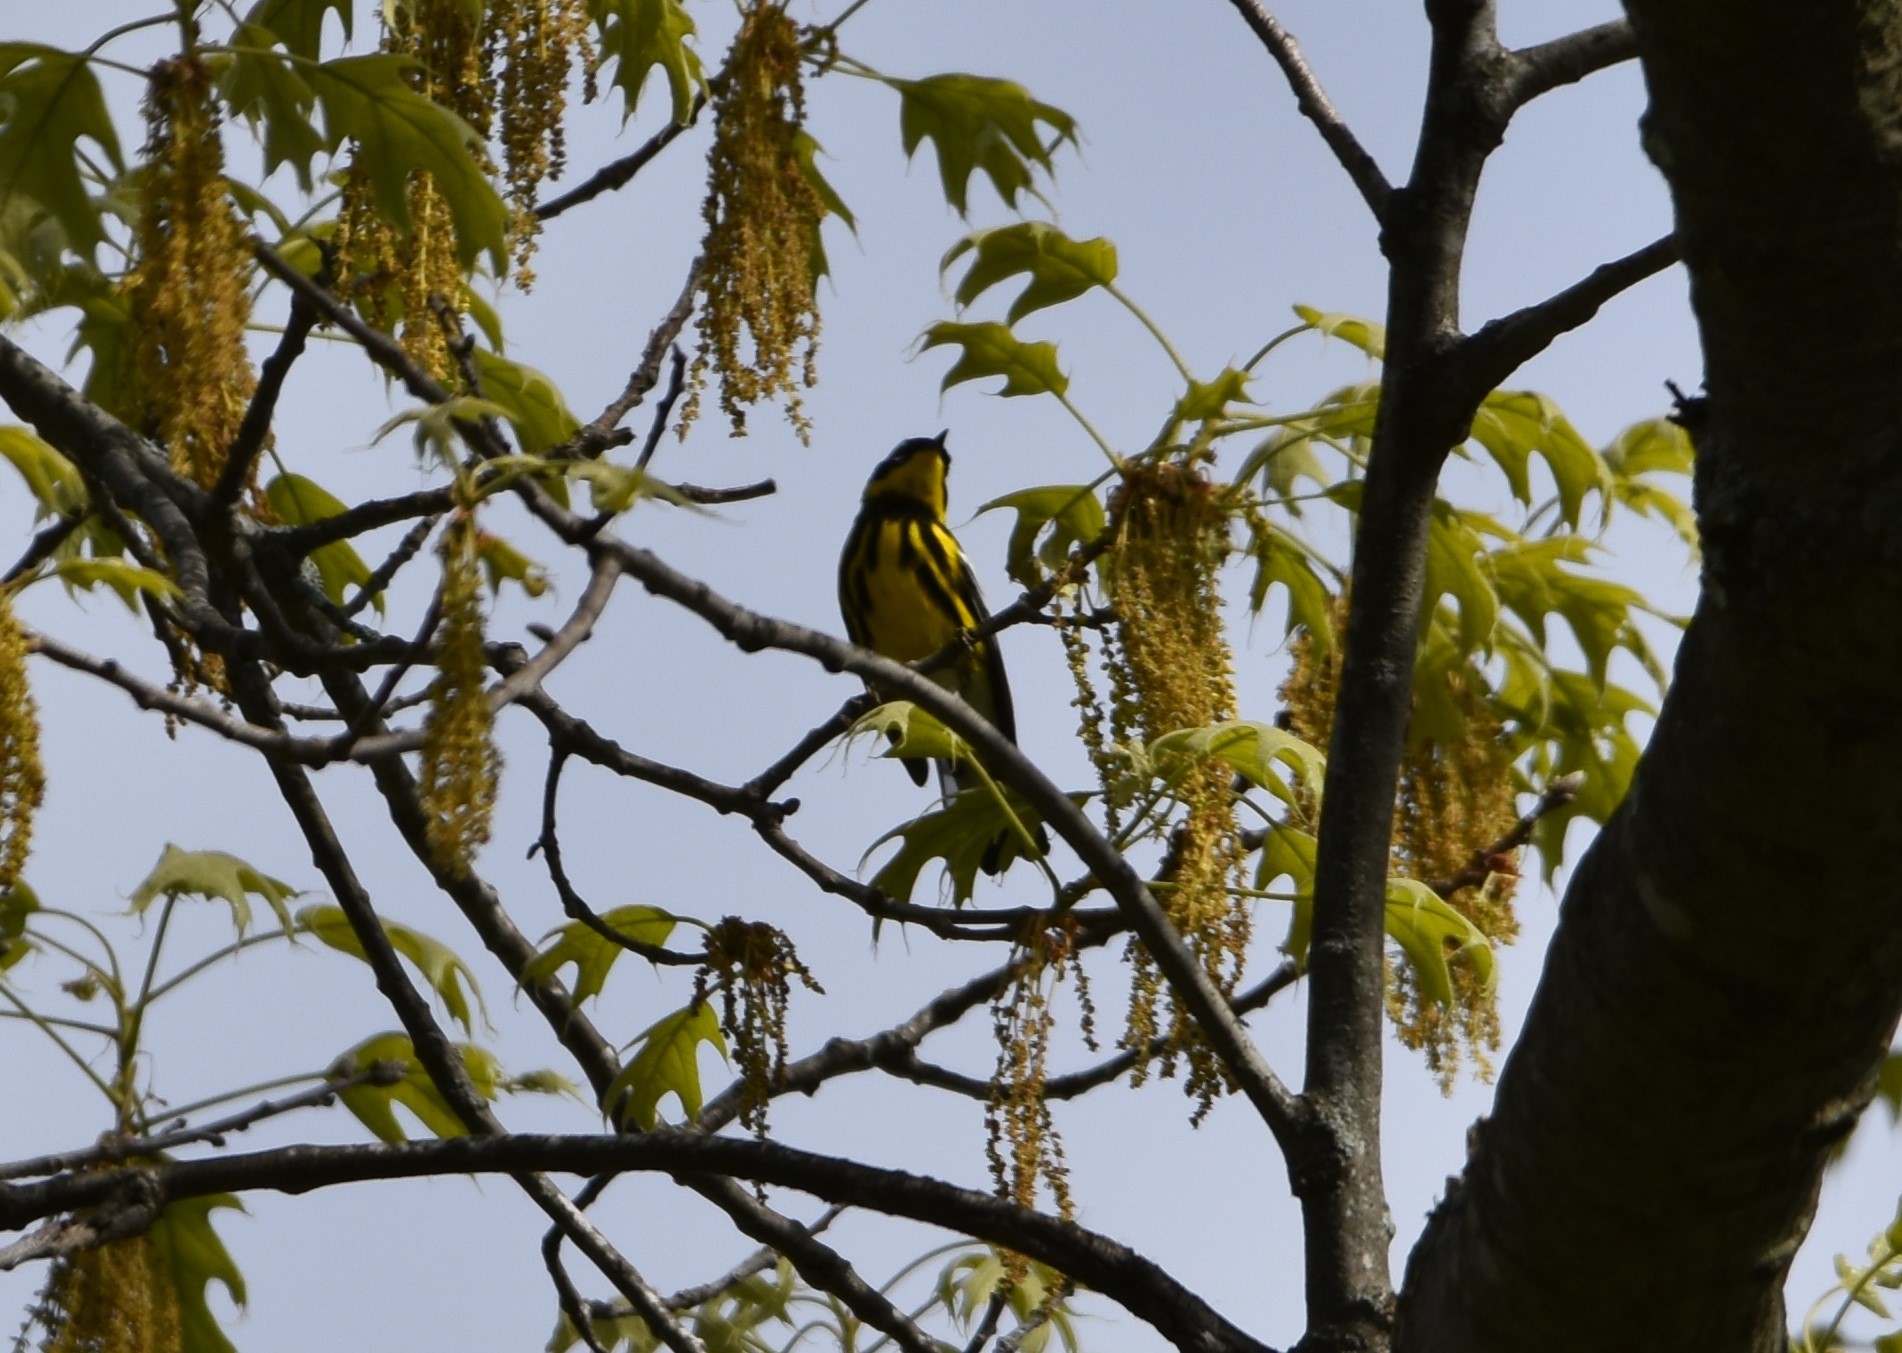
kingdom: Animalia
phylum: Chordata
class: Aves
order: Passeriformes
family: Parulidae
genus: Setophaga
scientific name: Setophaga magnolia
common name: Magnolia warbler
